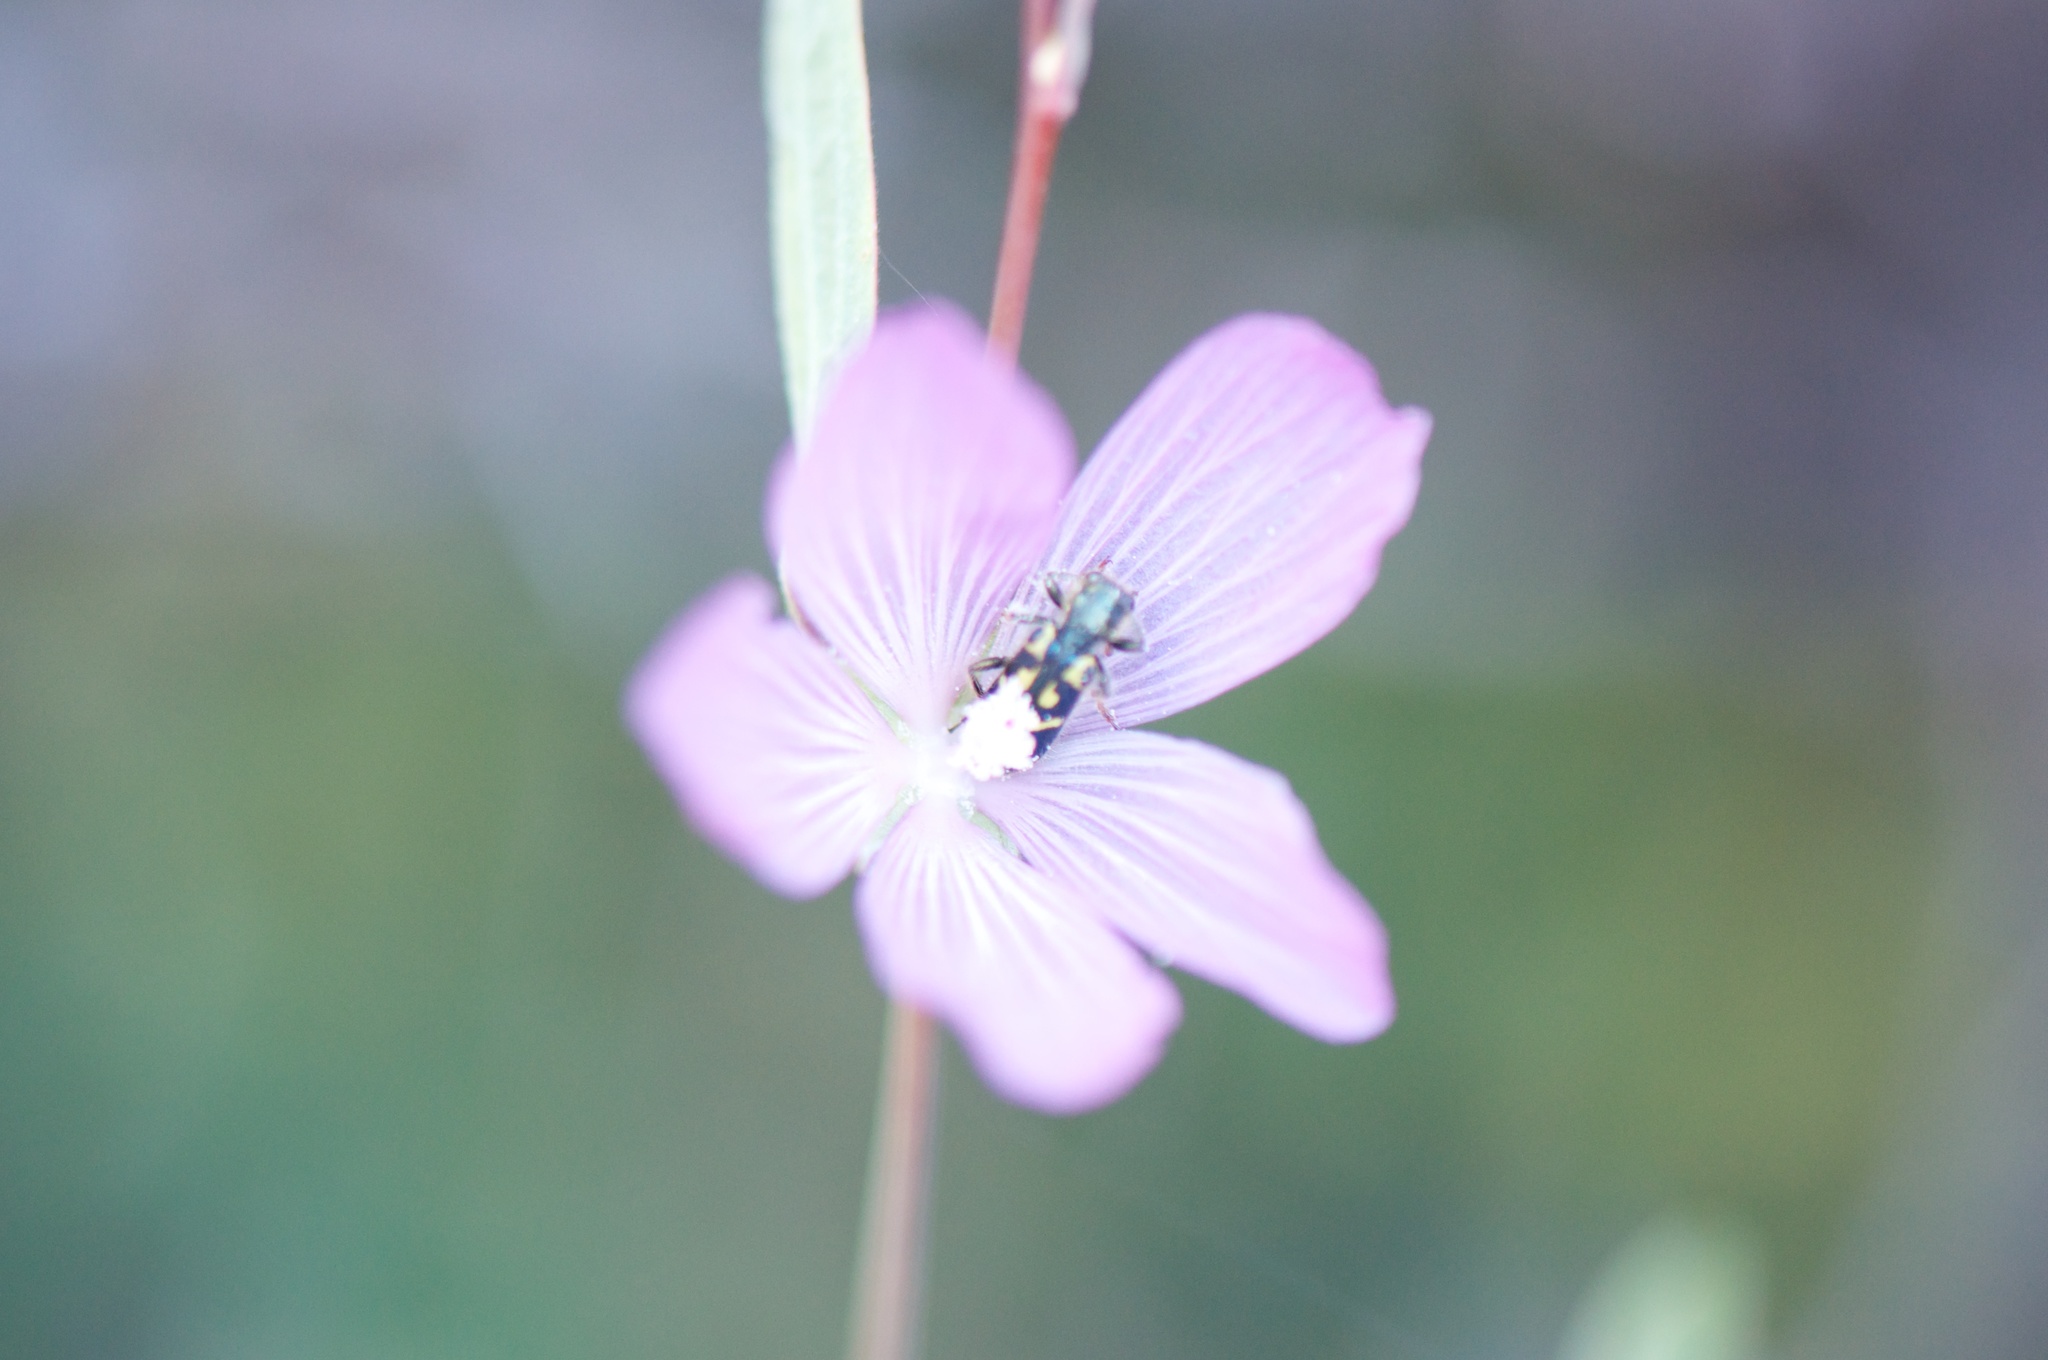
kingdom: Animalia
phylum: Arthropoda
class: Insecta
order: Coleoptera
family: Cleridae
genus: Trichodes
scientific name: Trichodes ornatus
